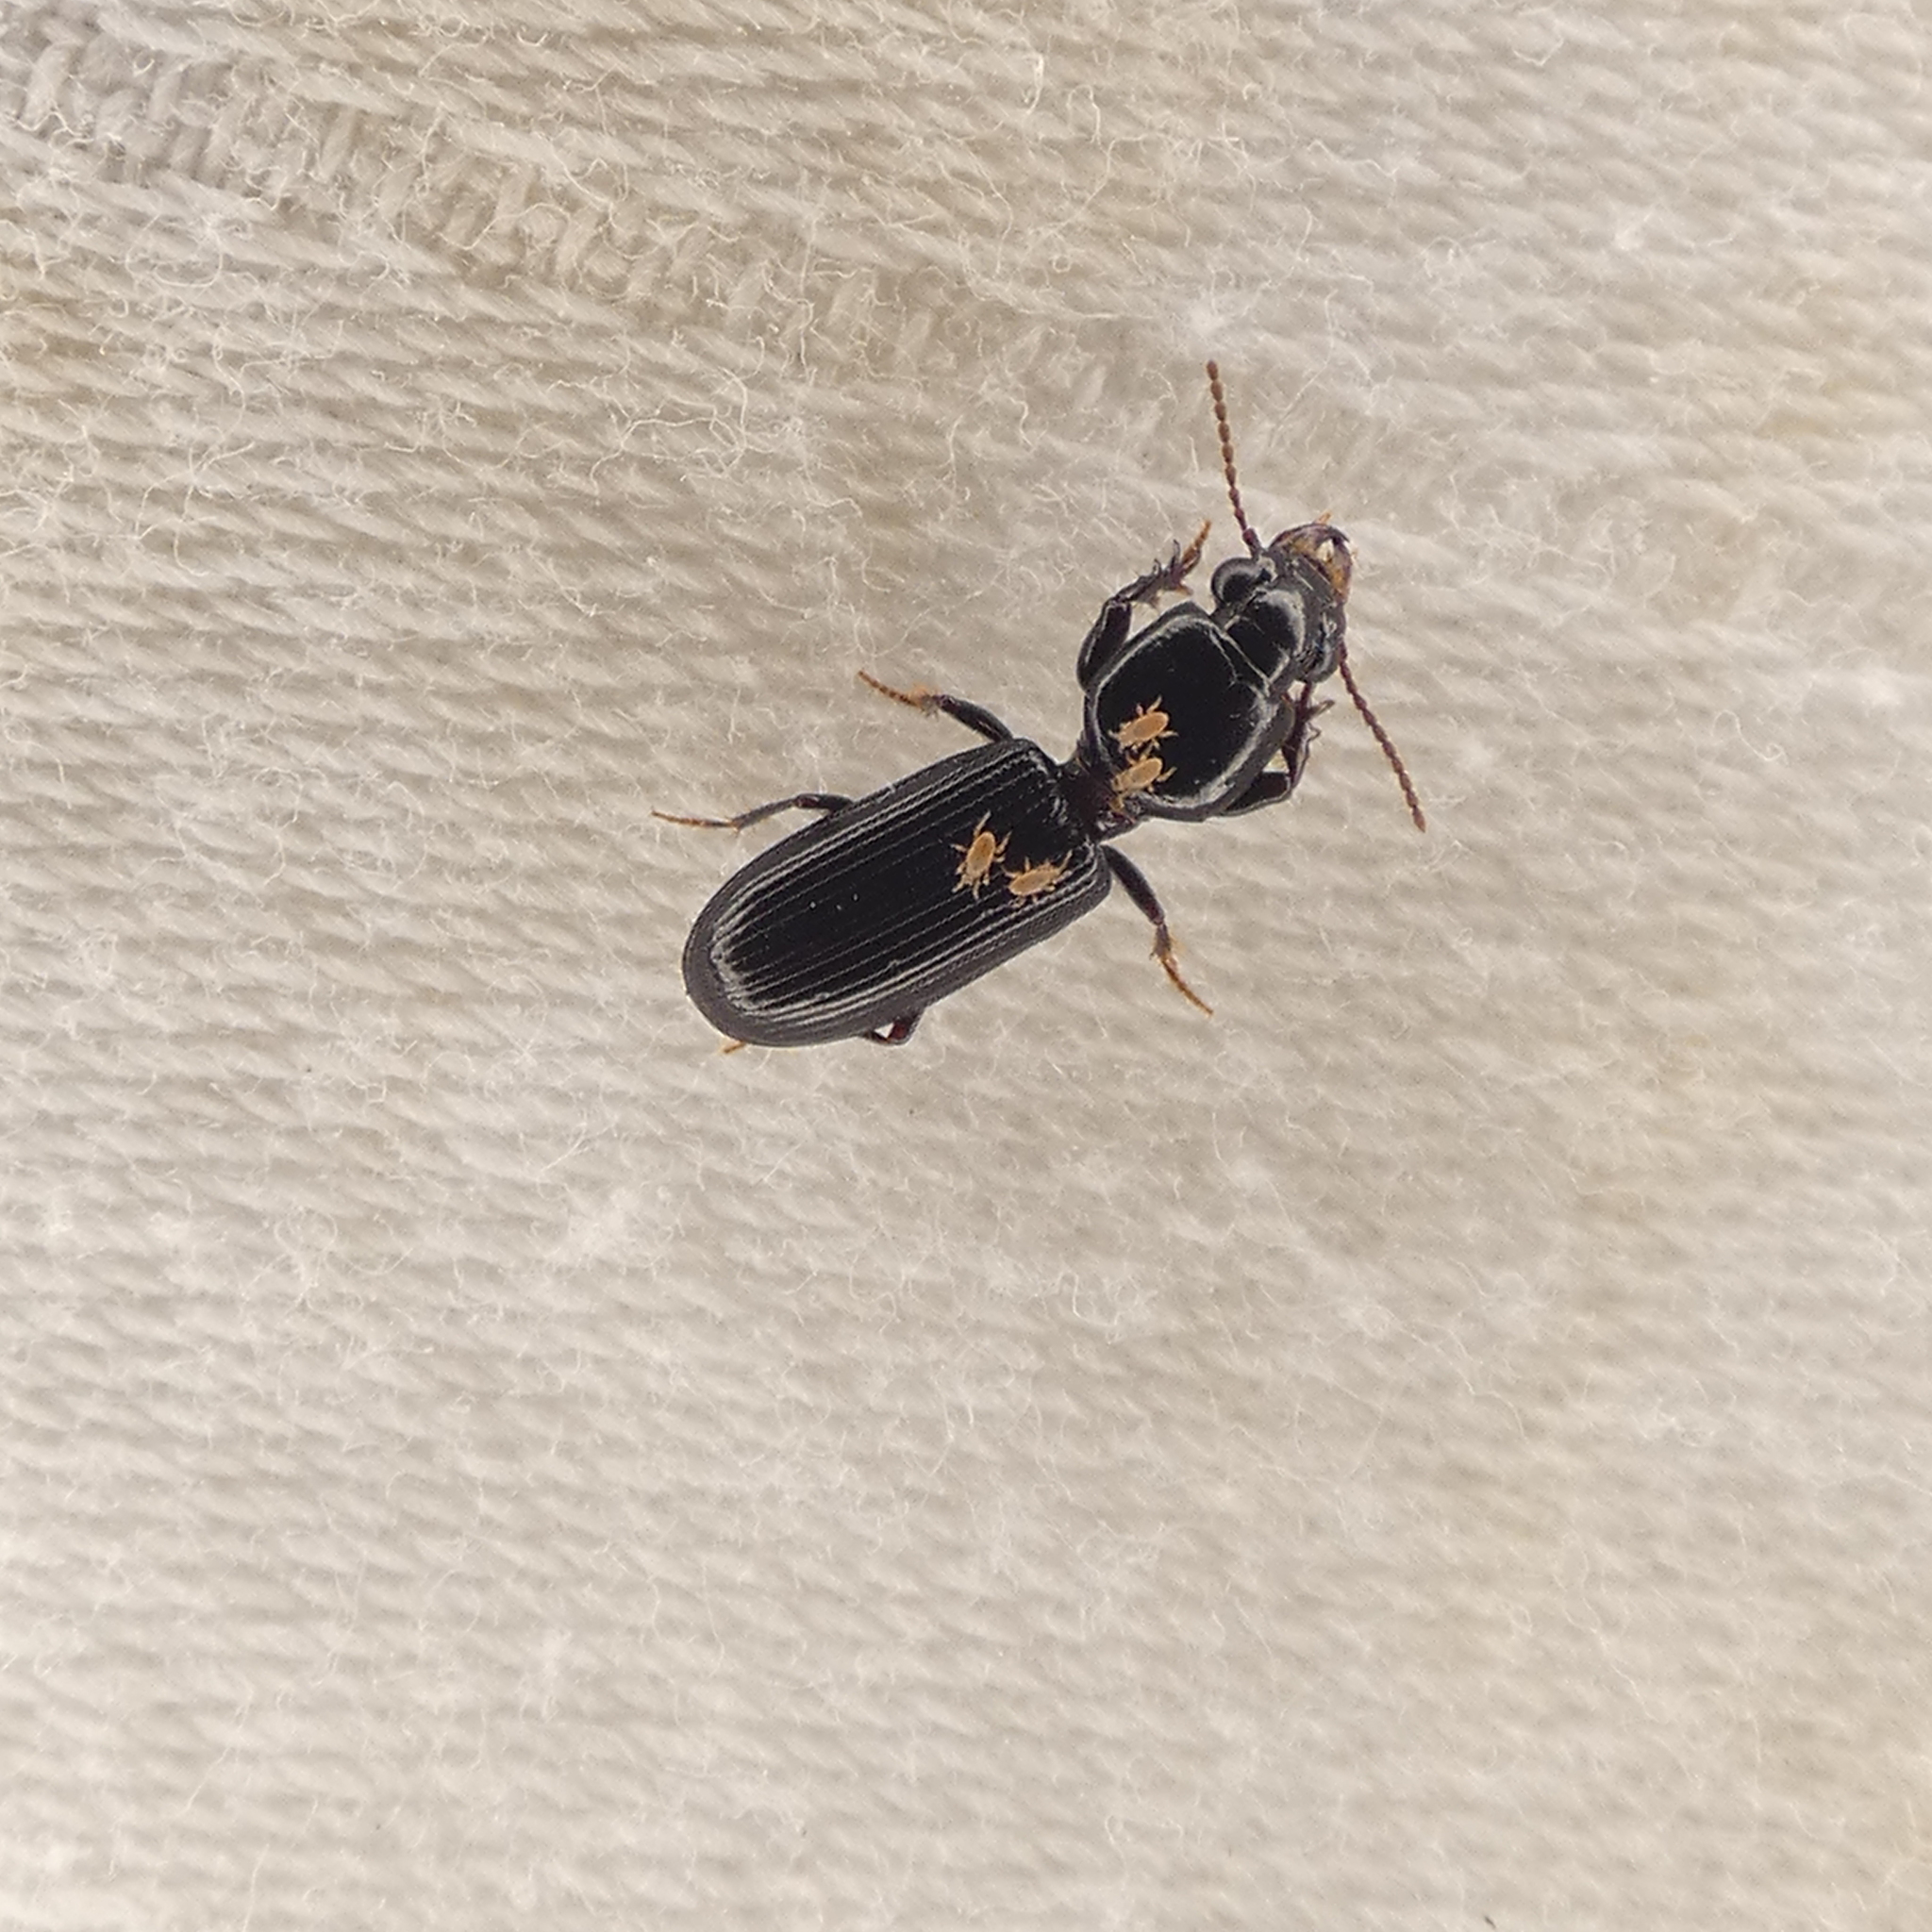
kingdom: Animalia
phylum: Arthropoda
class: Insecta
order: Coleoptera
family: Carabidae
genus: Semiclivina
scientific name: Semiclivina dentipes
